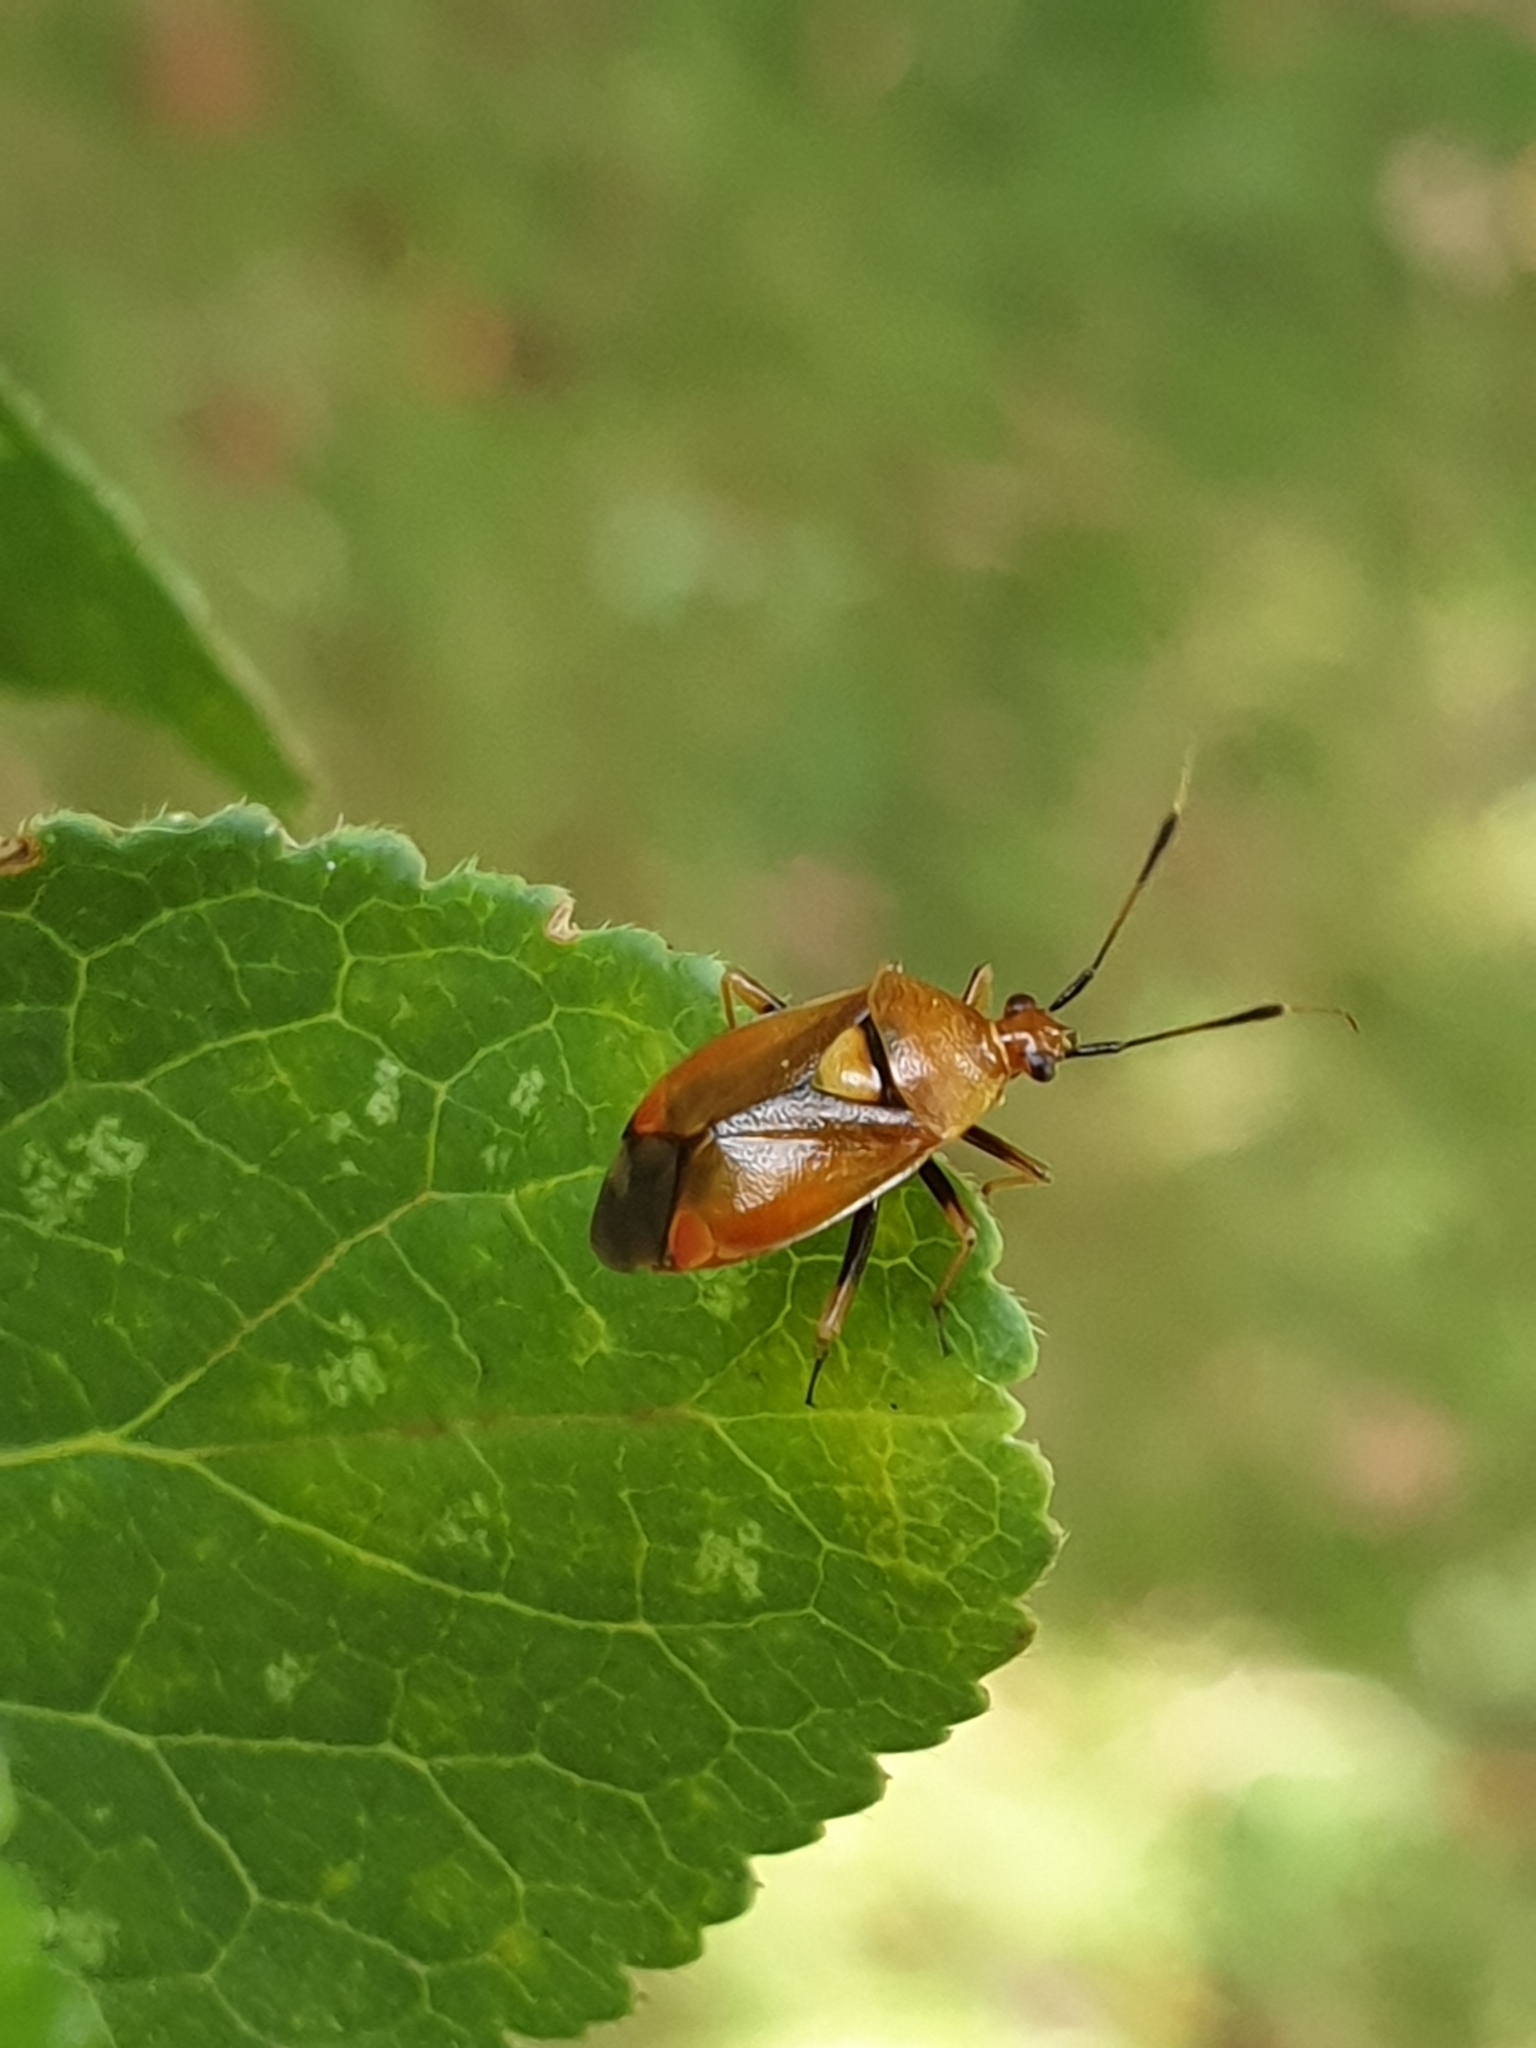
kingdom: Animalia
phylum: Arthropoda
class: Insecta
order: Hemiptera
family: Miridae
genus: Deraeocoris
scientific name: Deraeocoris ruber
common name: Plant bug
